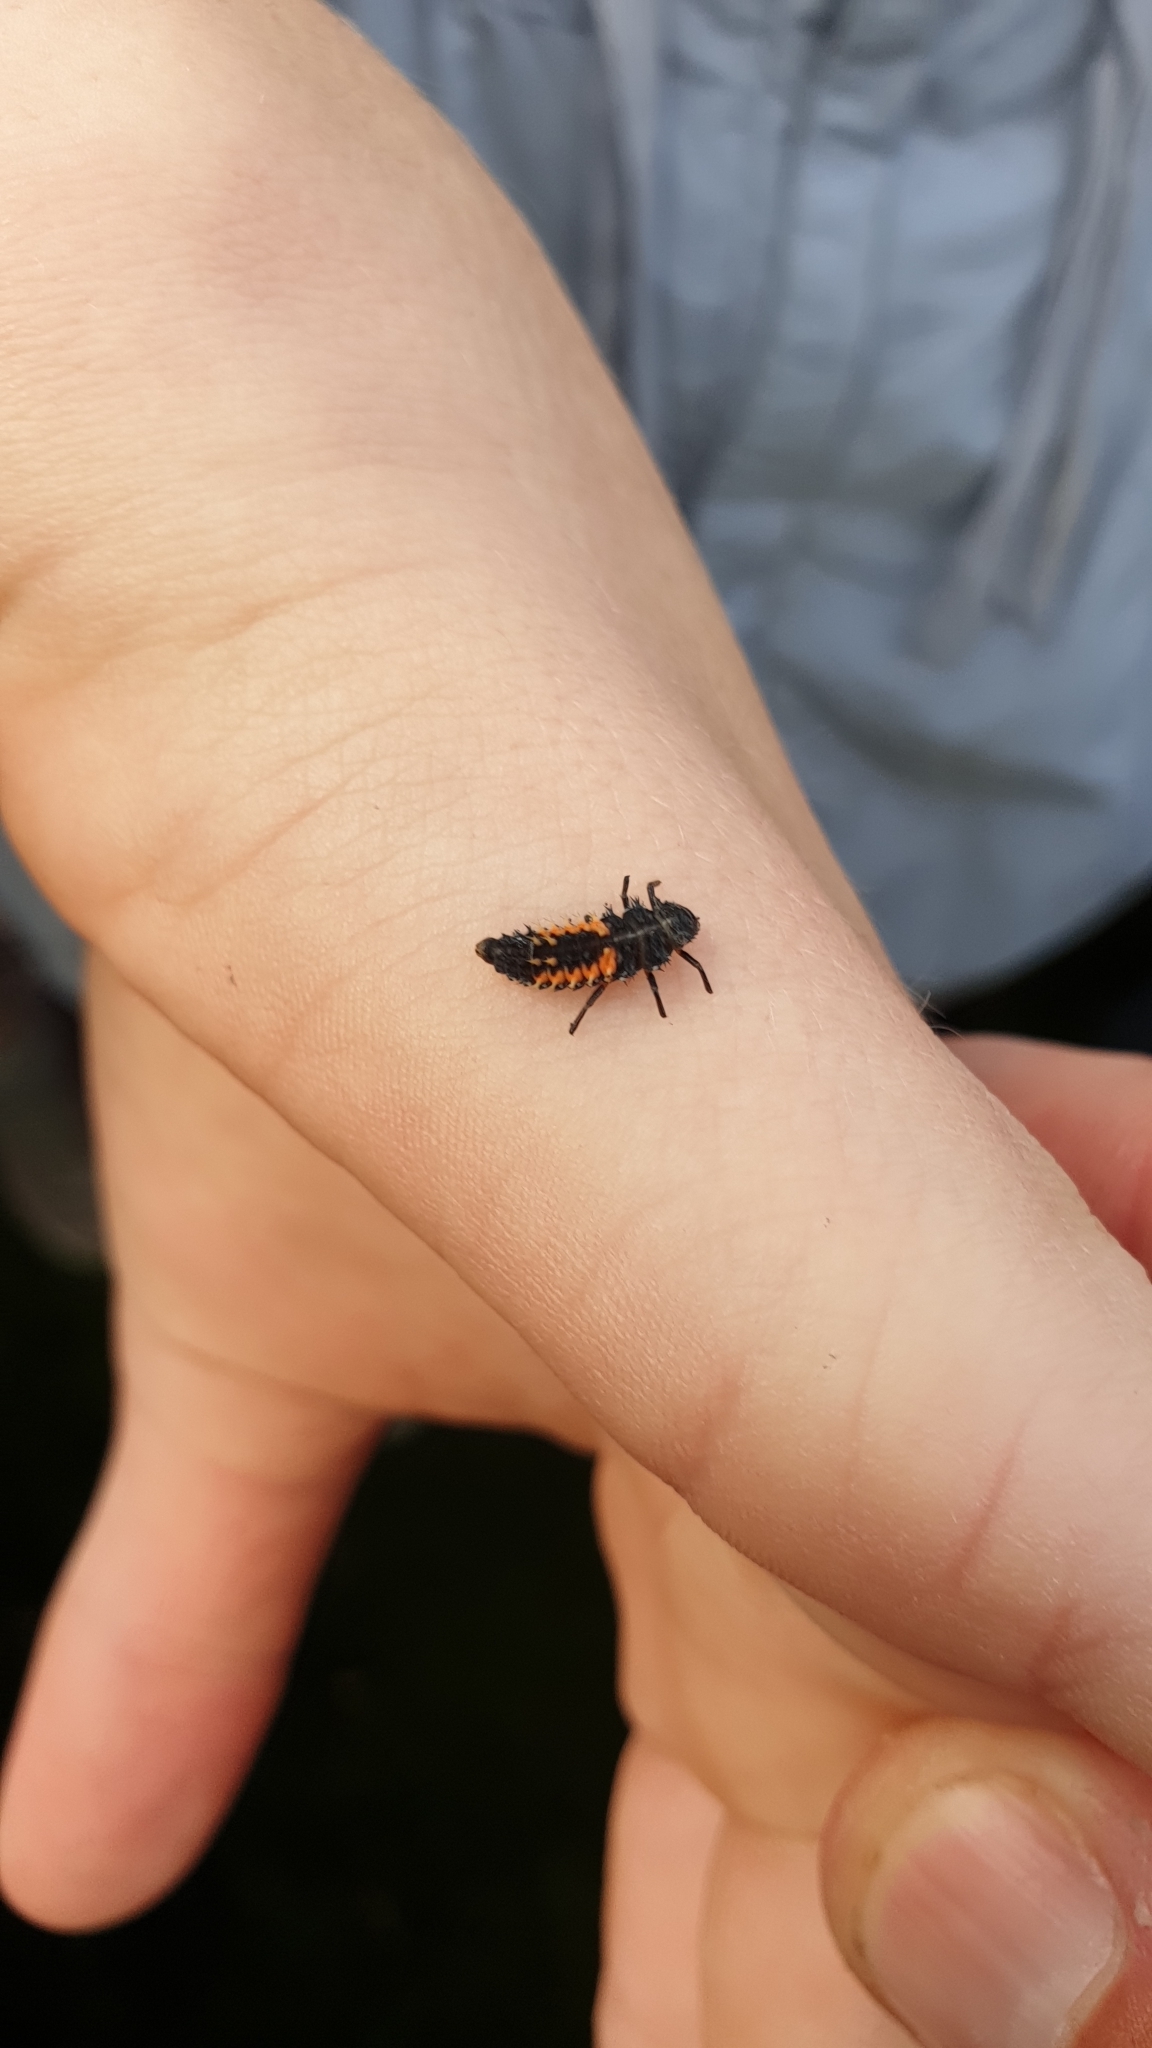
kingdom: Animalia
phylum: Arthropoda
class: Insecta
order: Coleoptera
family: Coccinellidae
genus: Harmonia
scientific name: Harmonia axyridis
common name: Harlequin ladybird
